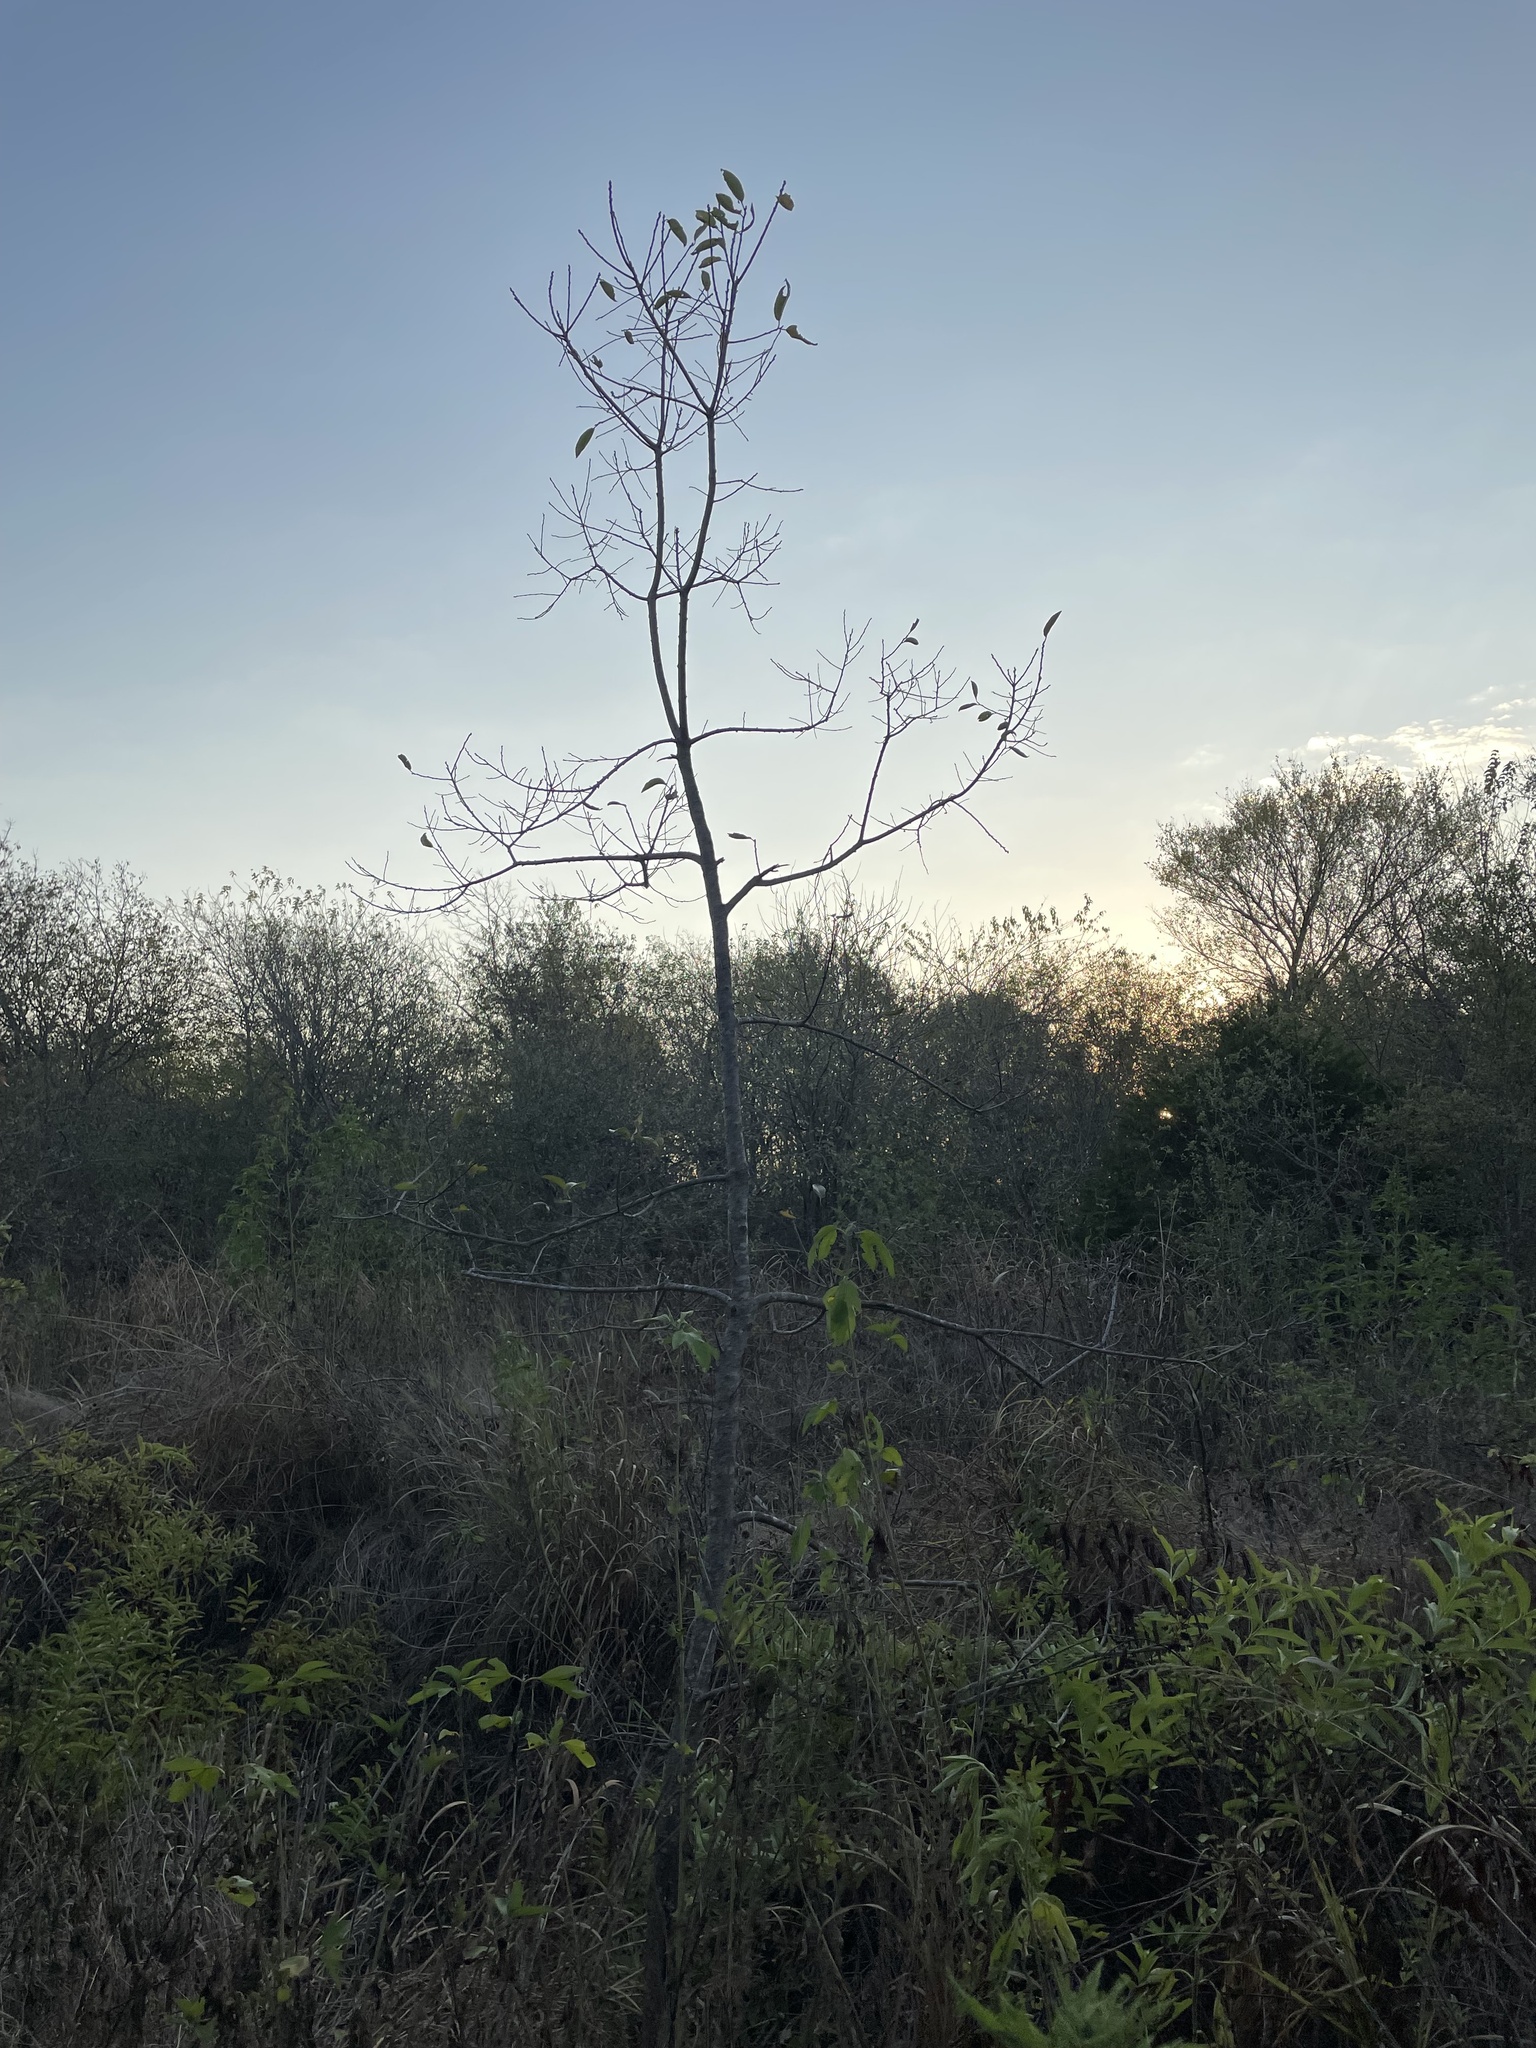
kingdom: Plantae
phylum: Tracheophyta
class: Magnoliopsida
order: Ericales
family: Ebenaceae
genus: Diospyros
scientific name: Diospyros virginiana
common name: Persimmon
